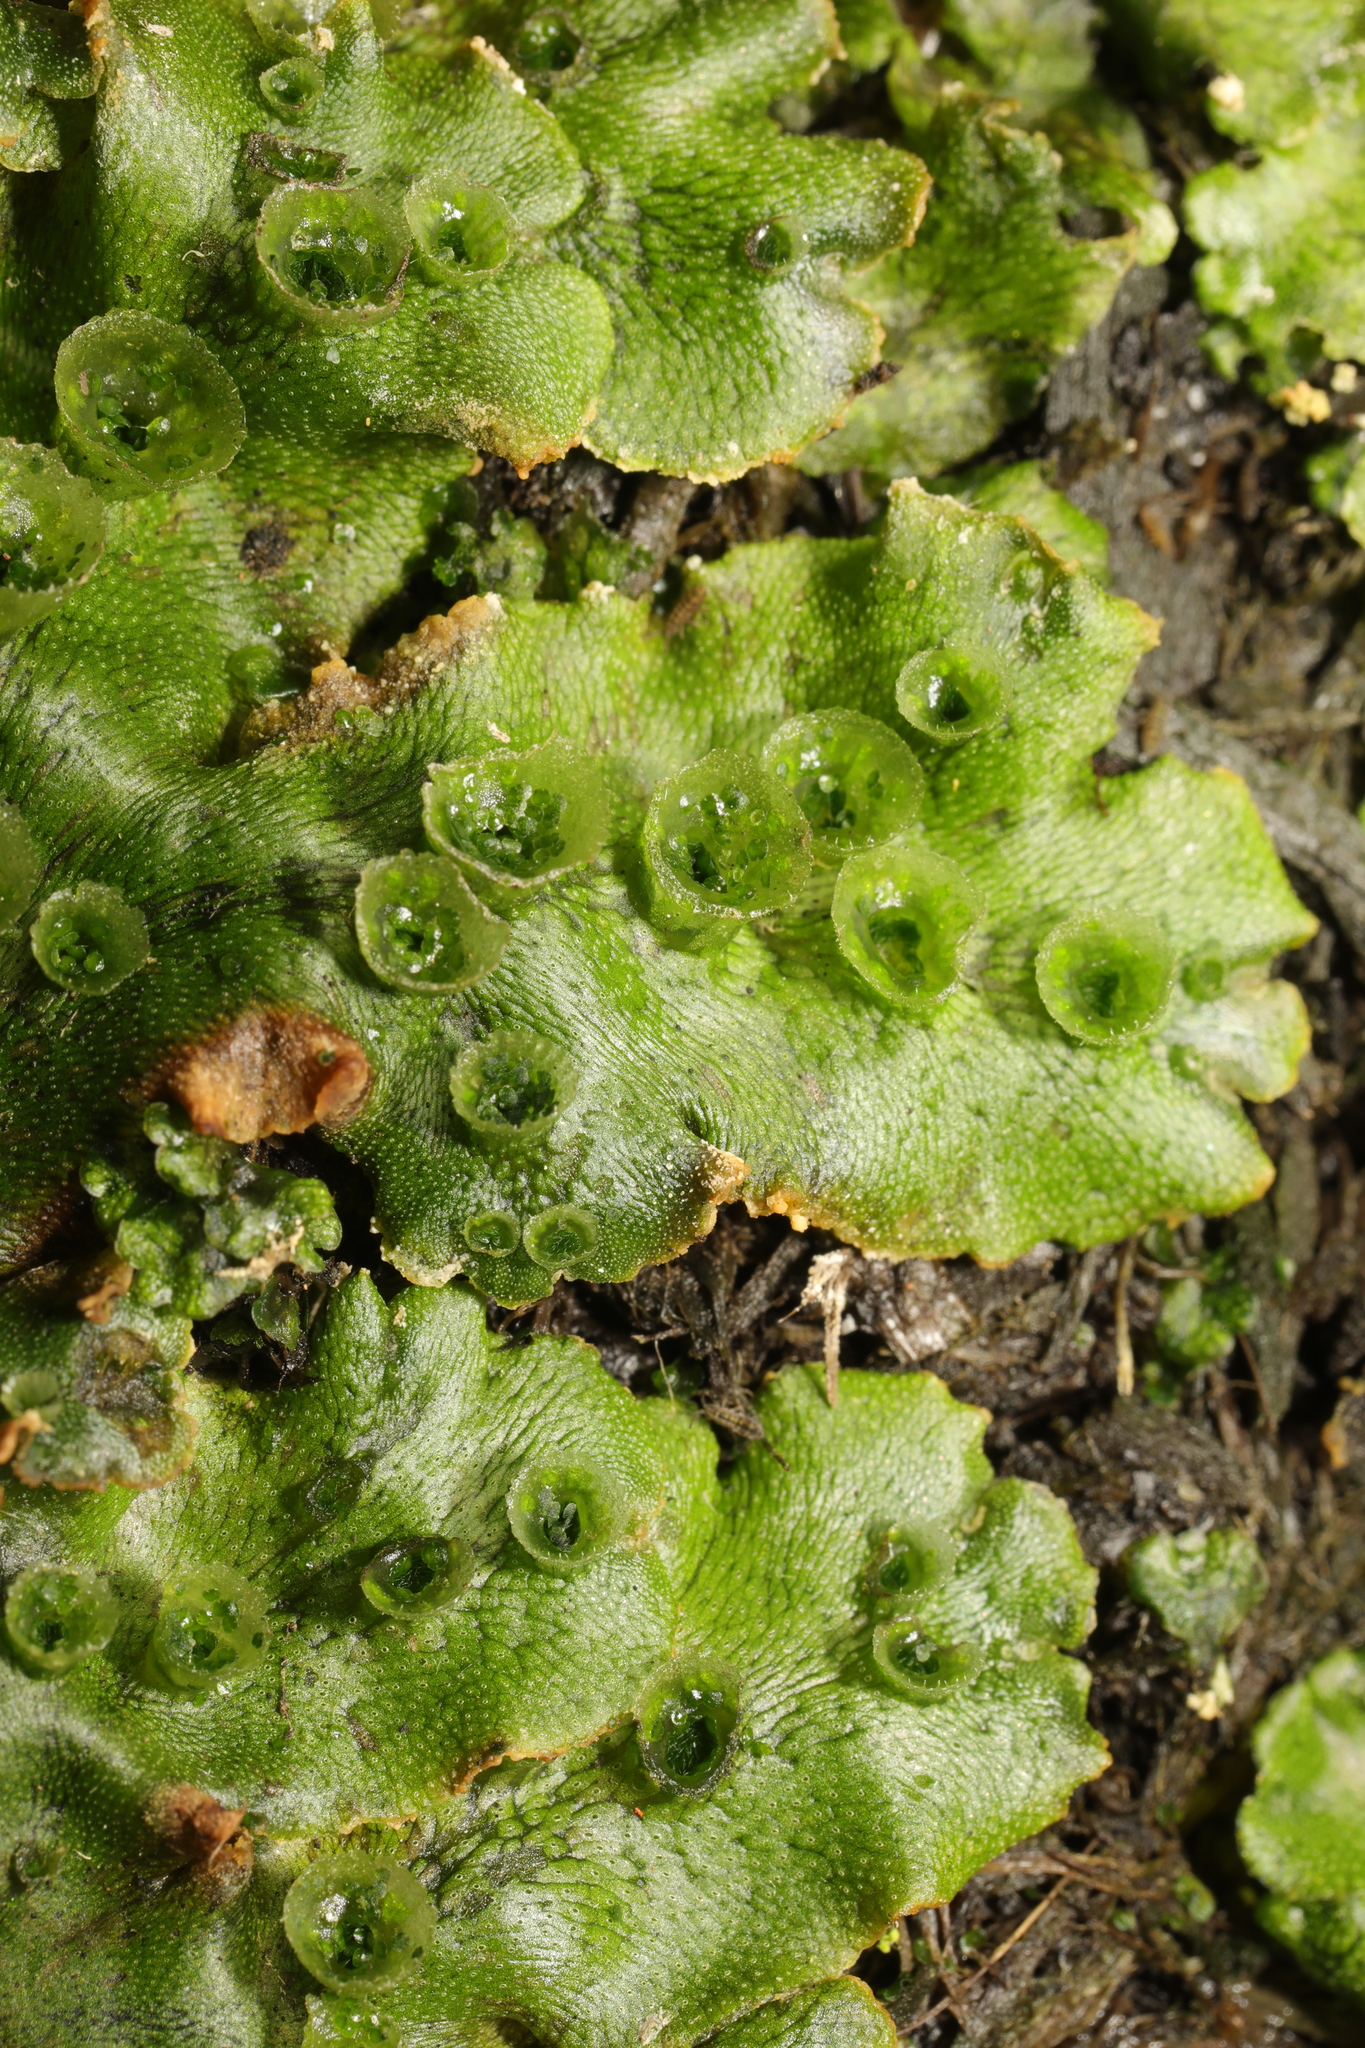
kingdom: Plantae
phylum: Marchantiophyta
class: Marchantiopsida
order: Marchantiales
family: Marchantiaceae
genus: Marchantia
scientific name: Marchantia polymorpha
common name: Common liverwort
